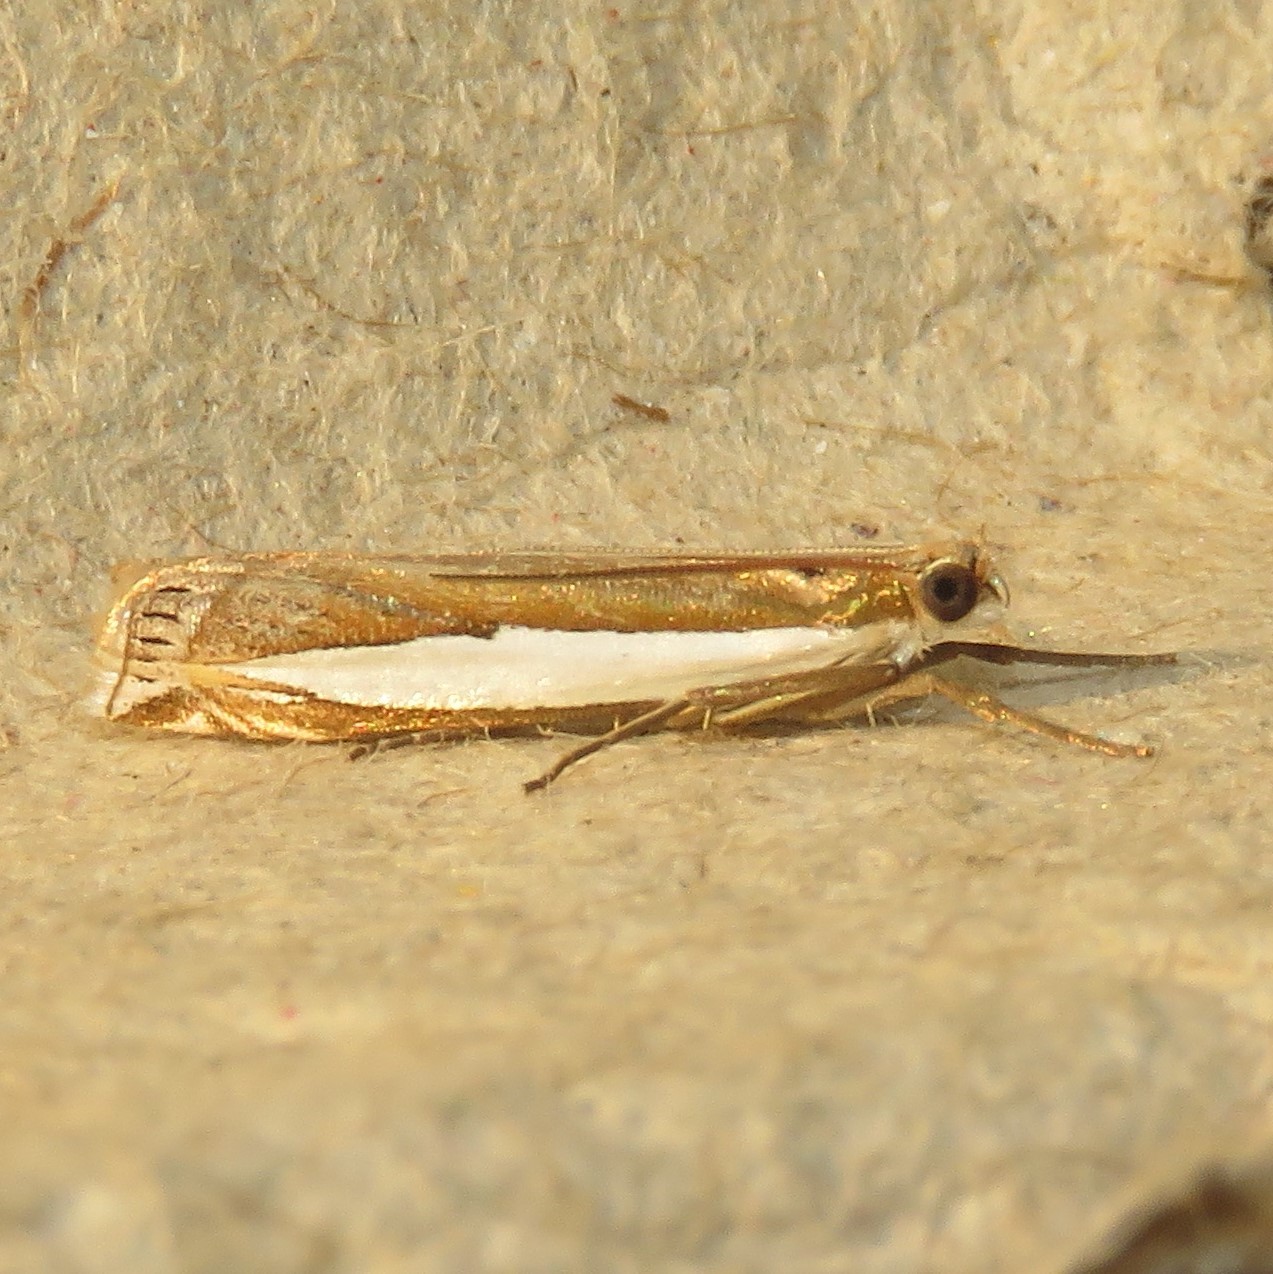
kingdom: Animalia
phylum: Arthropoda
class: Insecta
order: Lepidoptera
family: Crambidae
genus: Crambus
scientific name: Crambus leachellus
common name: Leach's grass-veneer
